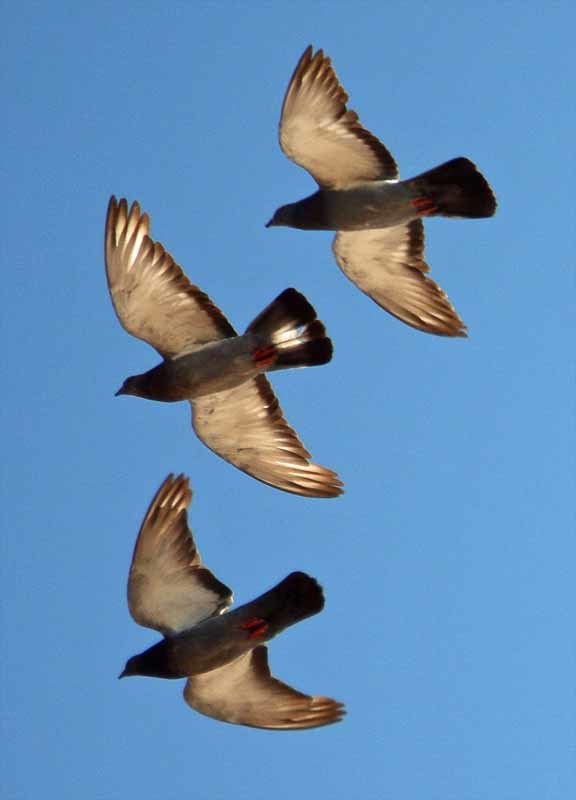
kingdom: Animalia
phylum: Chordata
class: Aves
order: Columbiformes
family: Columbidae
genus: Columba
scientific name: Columba livia
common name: Rock pigeon
